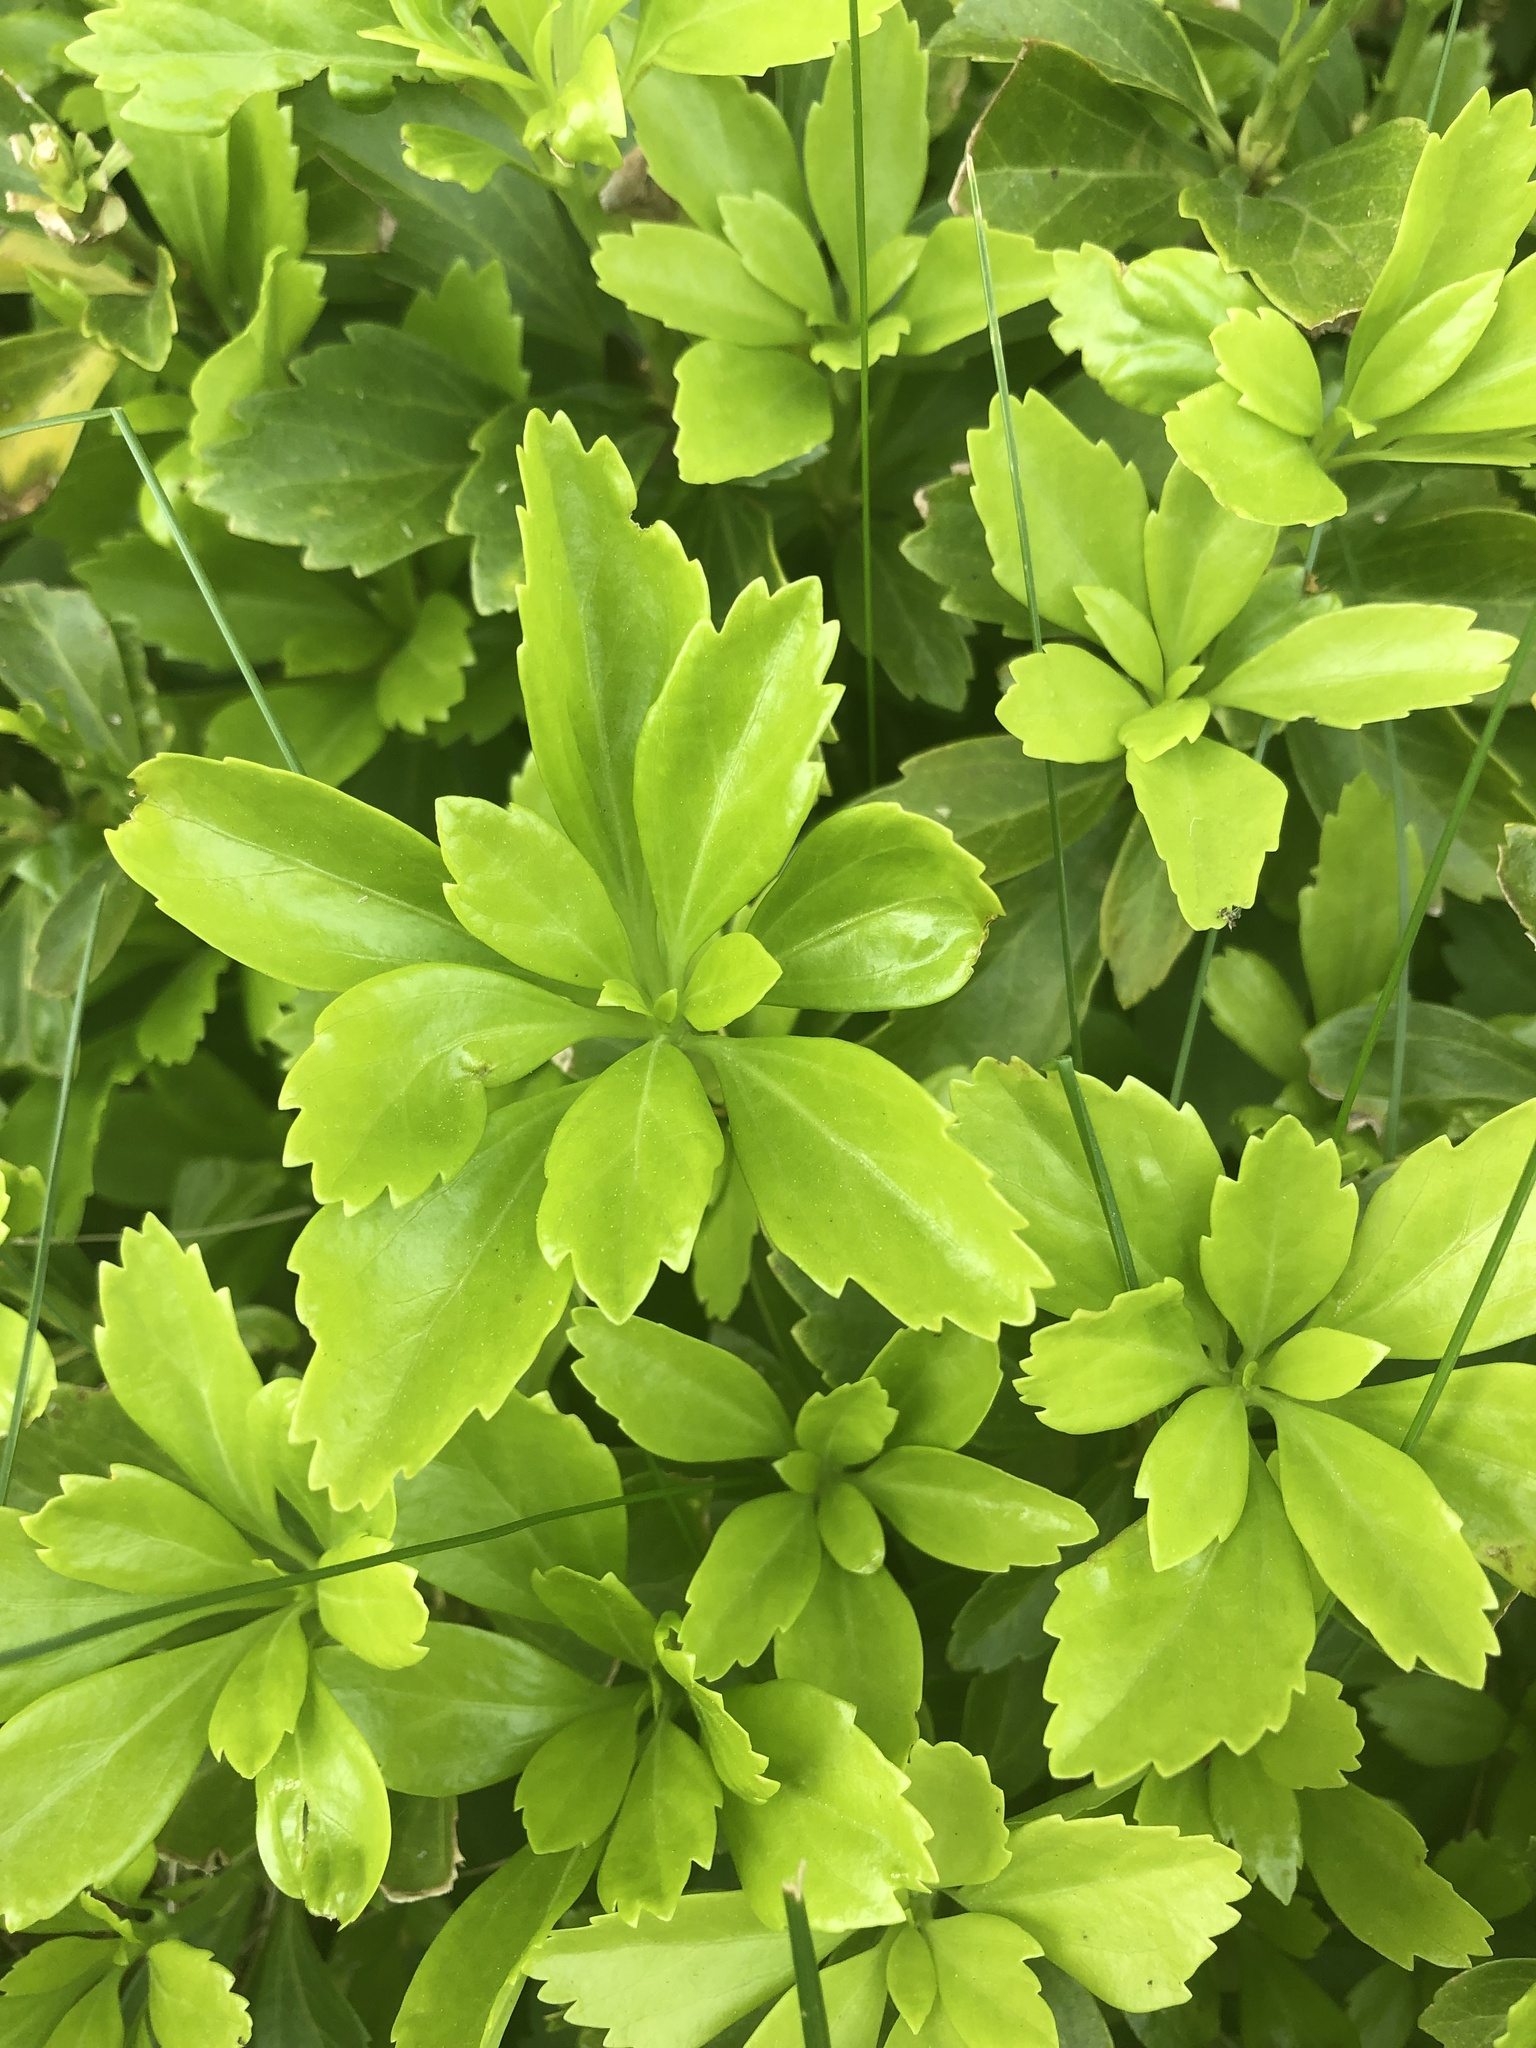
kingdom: Plantae
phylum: Tracheophyta
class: Magnoliopsida
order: Buxales
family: Buxaceae
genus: Pachysandra
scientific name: Pachysandra terminalis
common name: Japanese pachysandra
